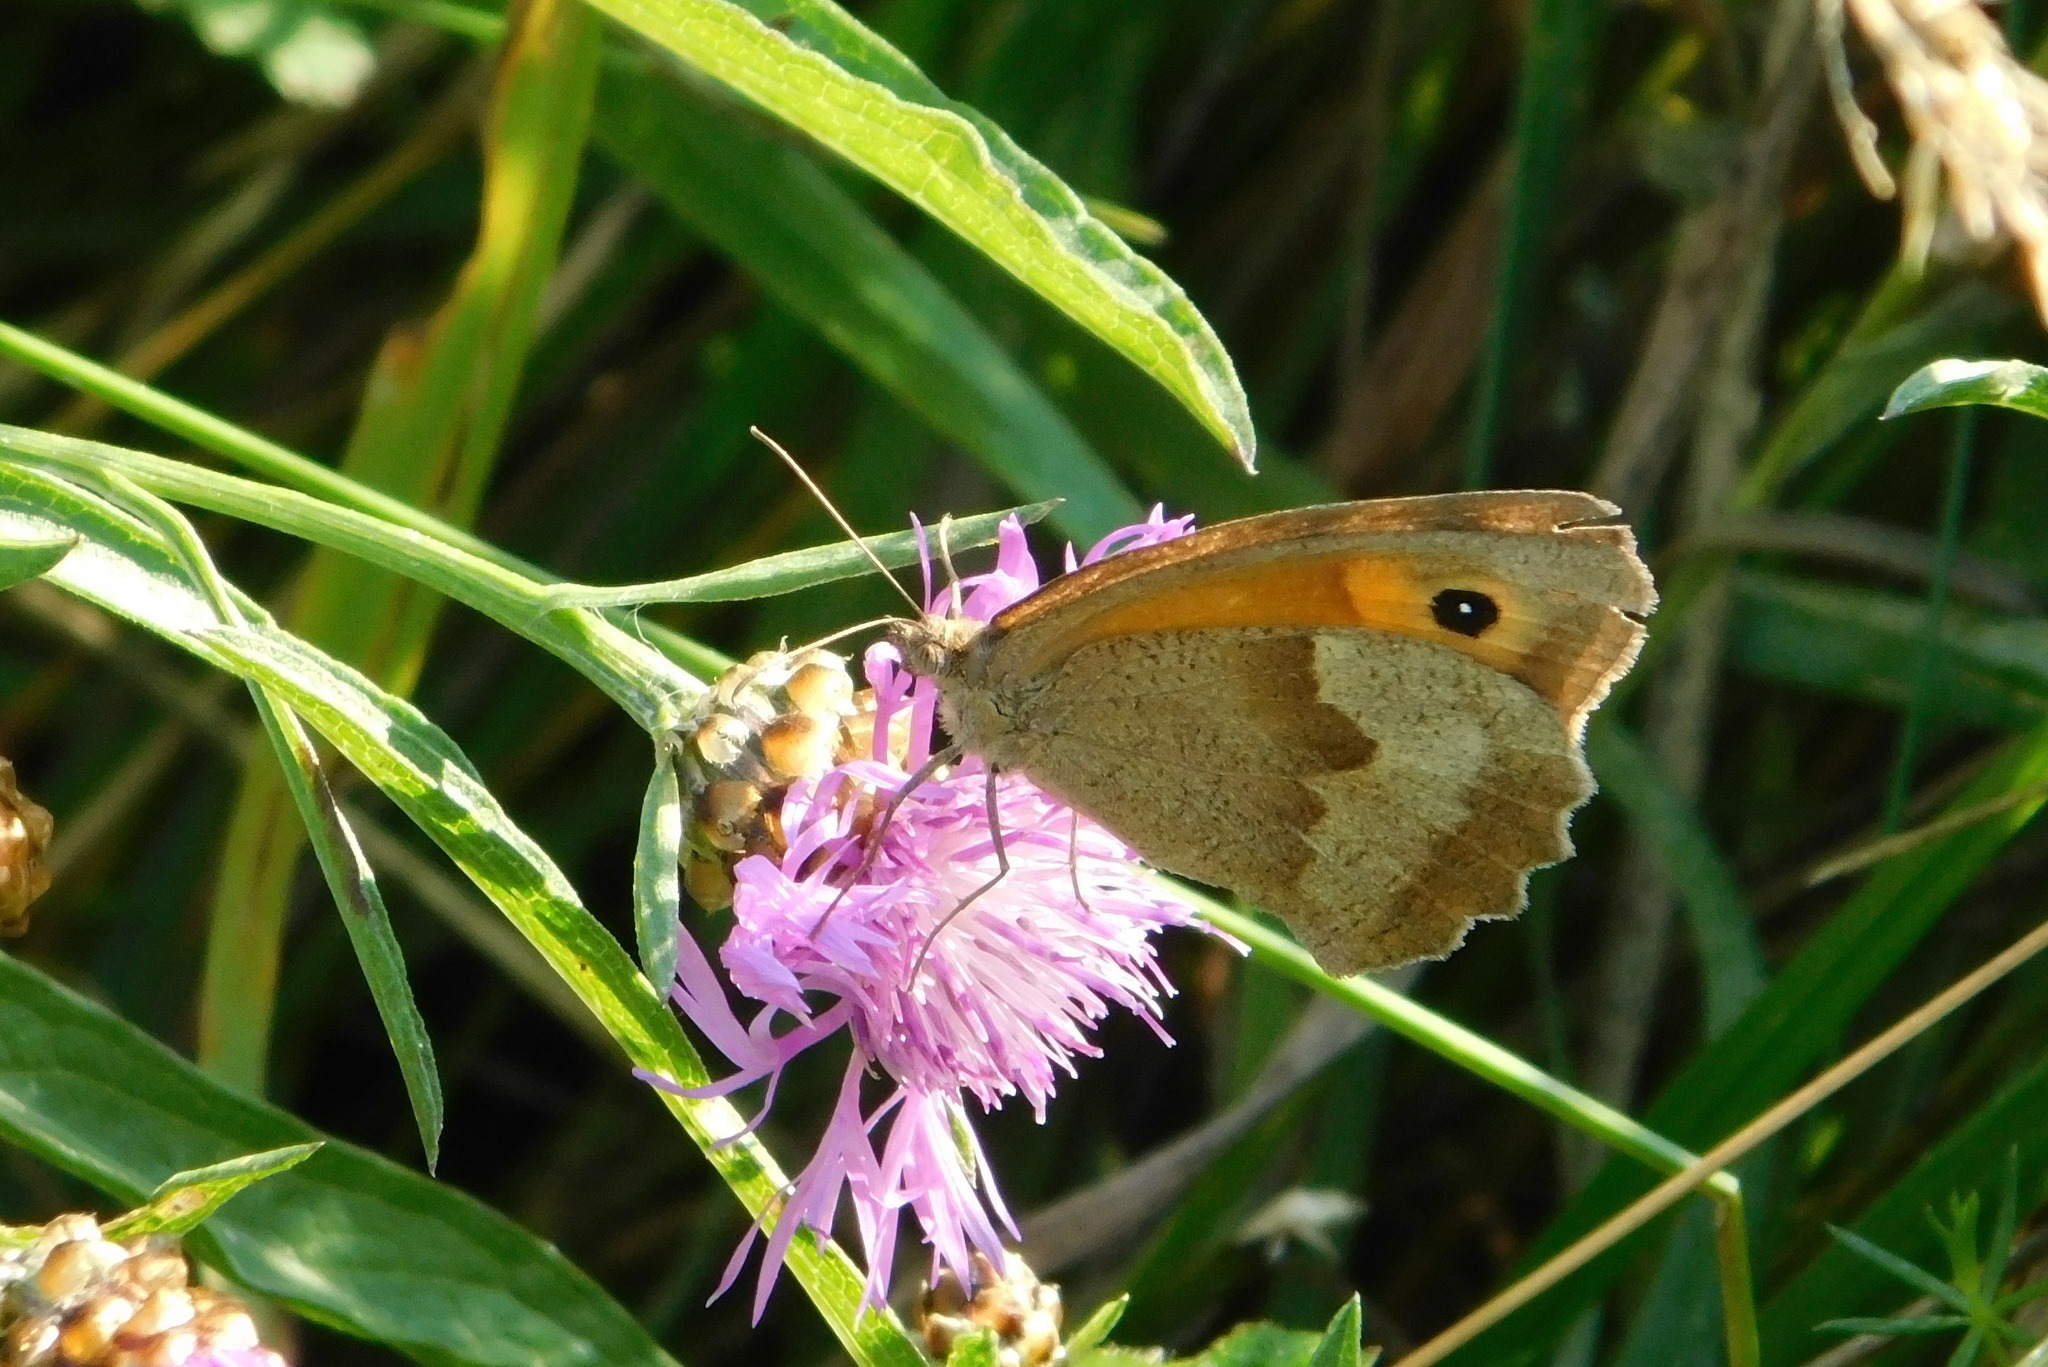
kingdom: Animalia
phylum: Arthropoda
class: Insecta
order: Lepidoptera
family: Nymphalidae
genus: Maniola
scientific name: Maniola jurtina
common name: Meadow brown
